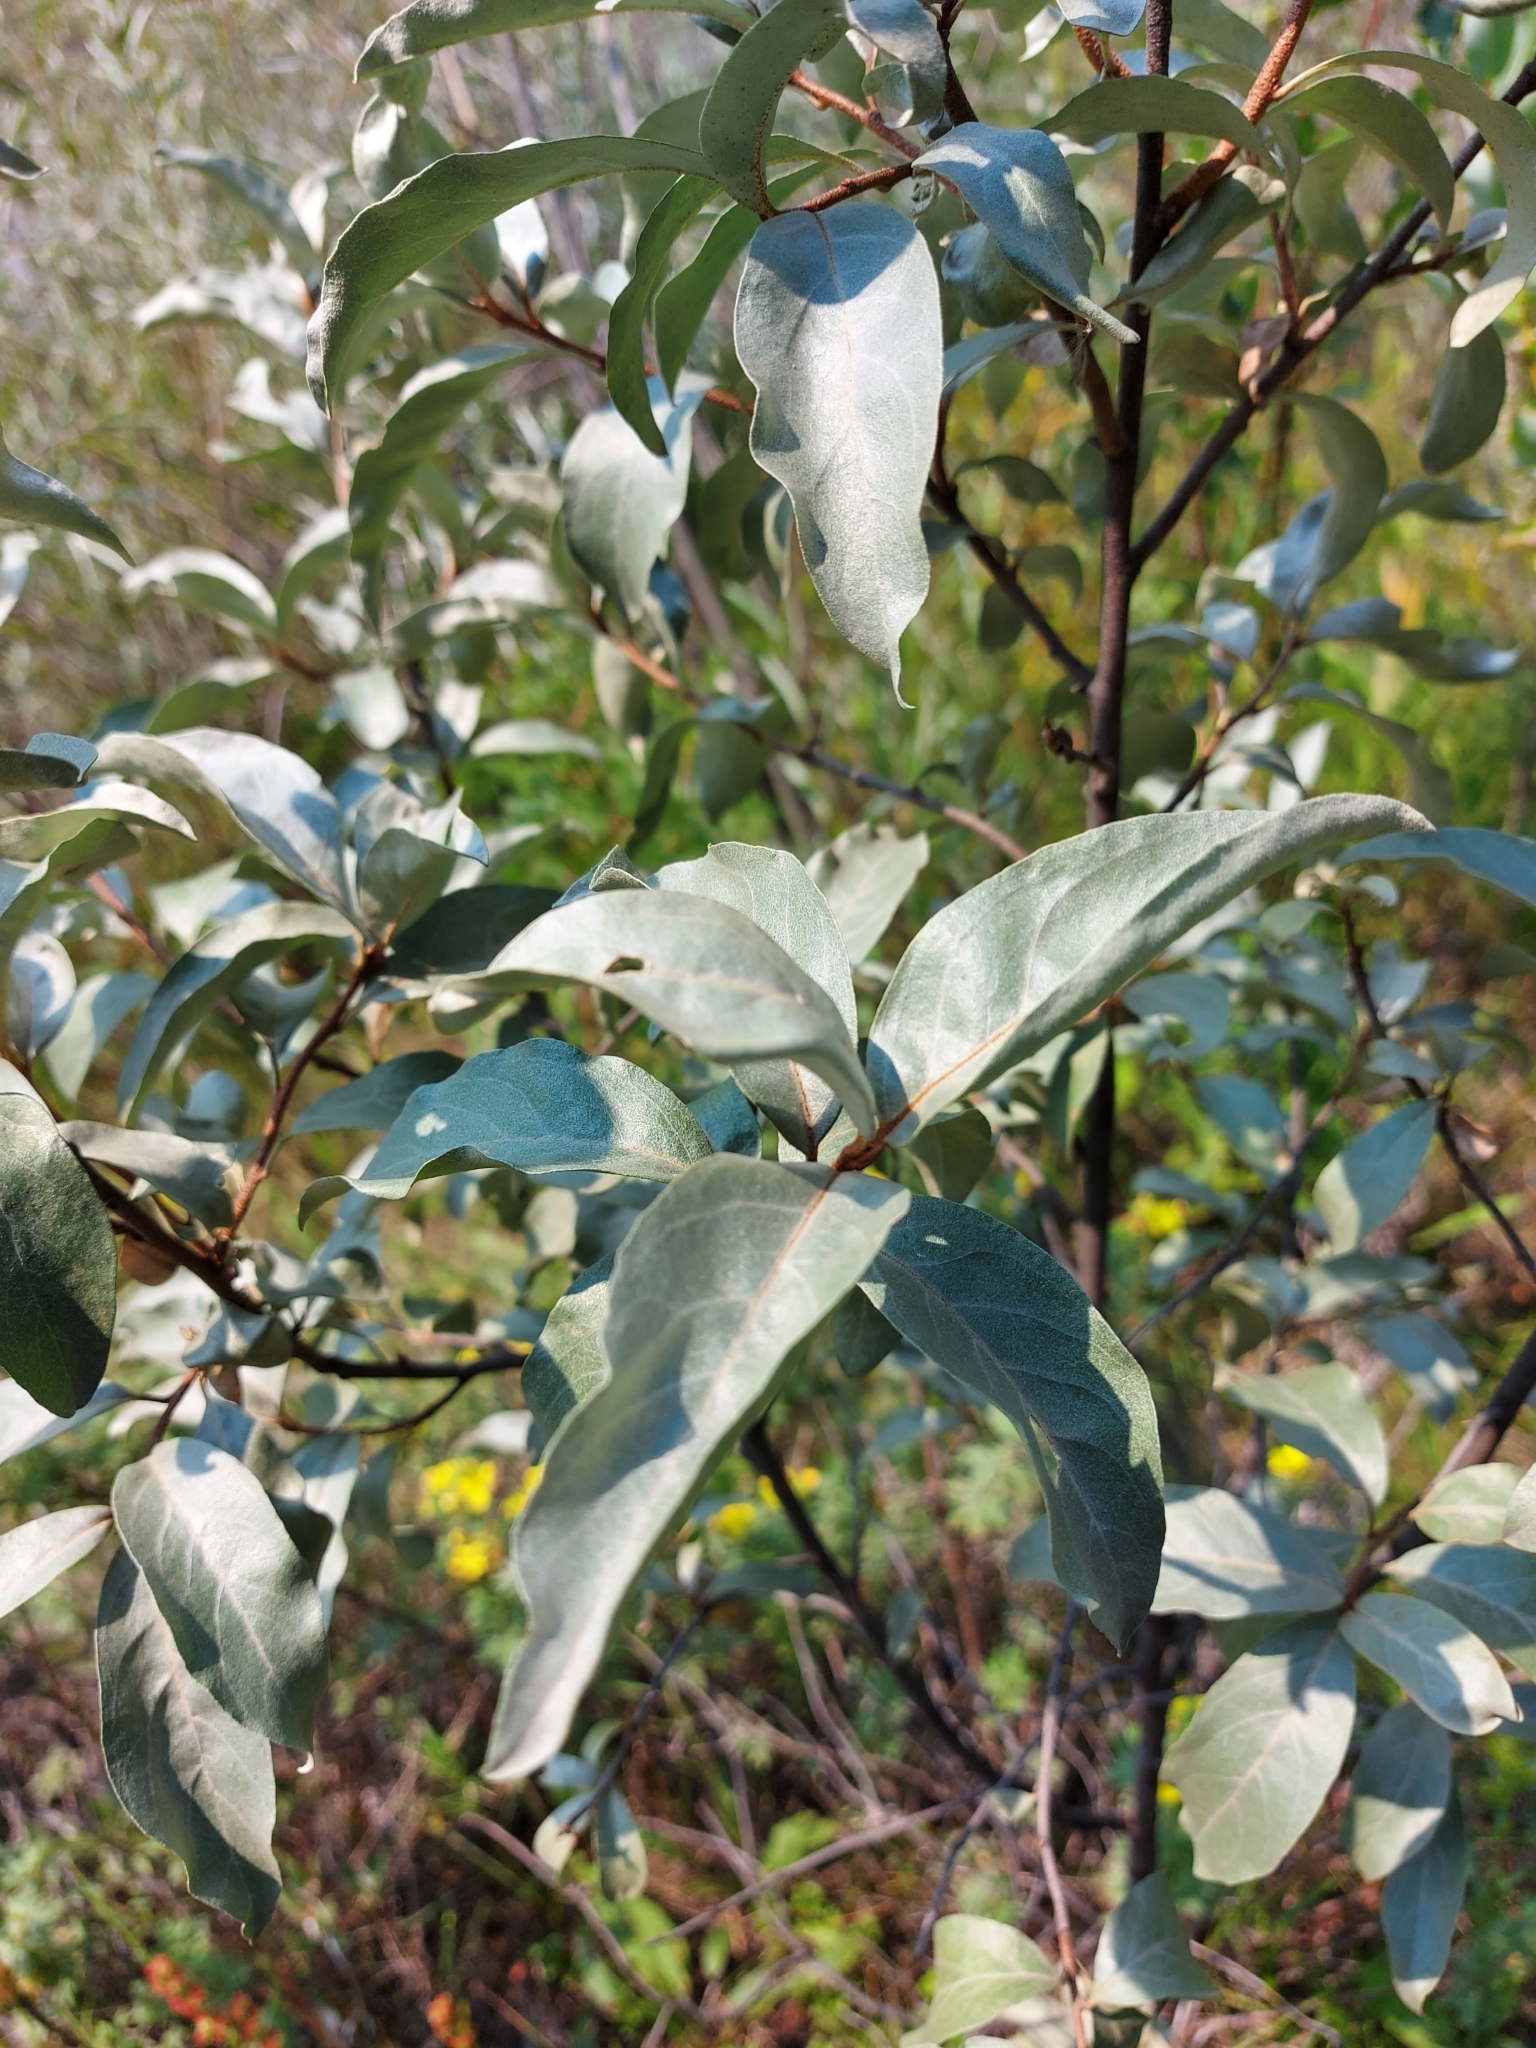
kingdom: Plantae
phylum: Tracheophyta
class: Magnoliopsida
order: Rosales
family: Elaeagnaceae
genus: Elaeagnus
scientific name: Elaeagnus commutata
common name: Silverberry
